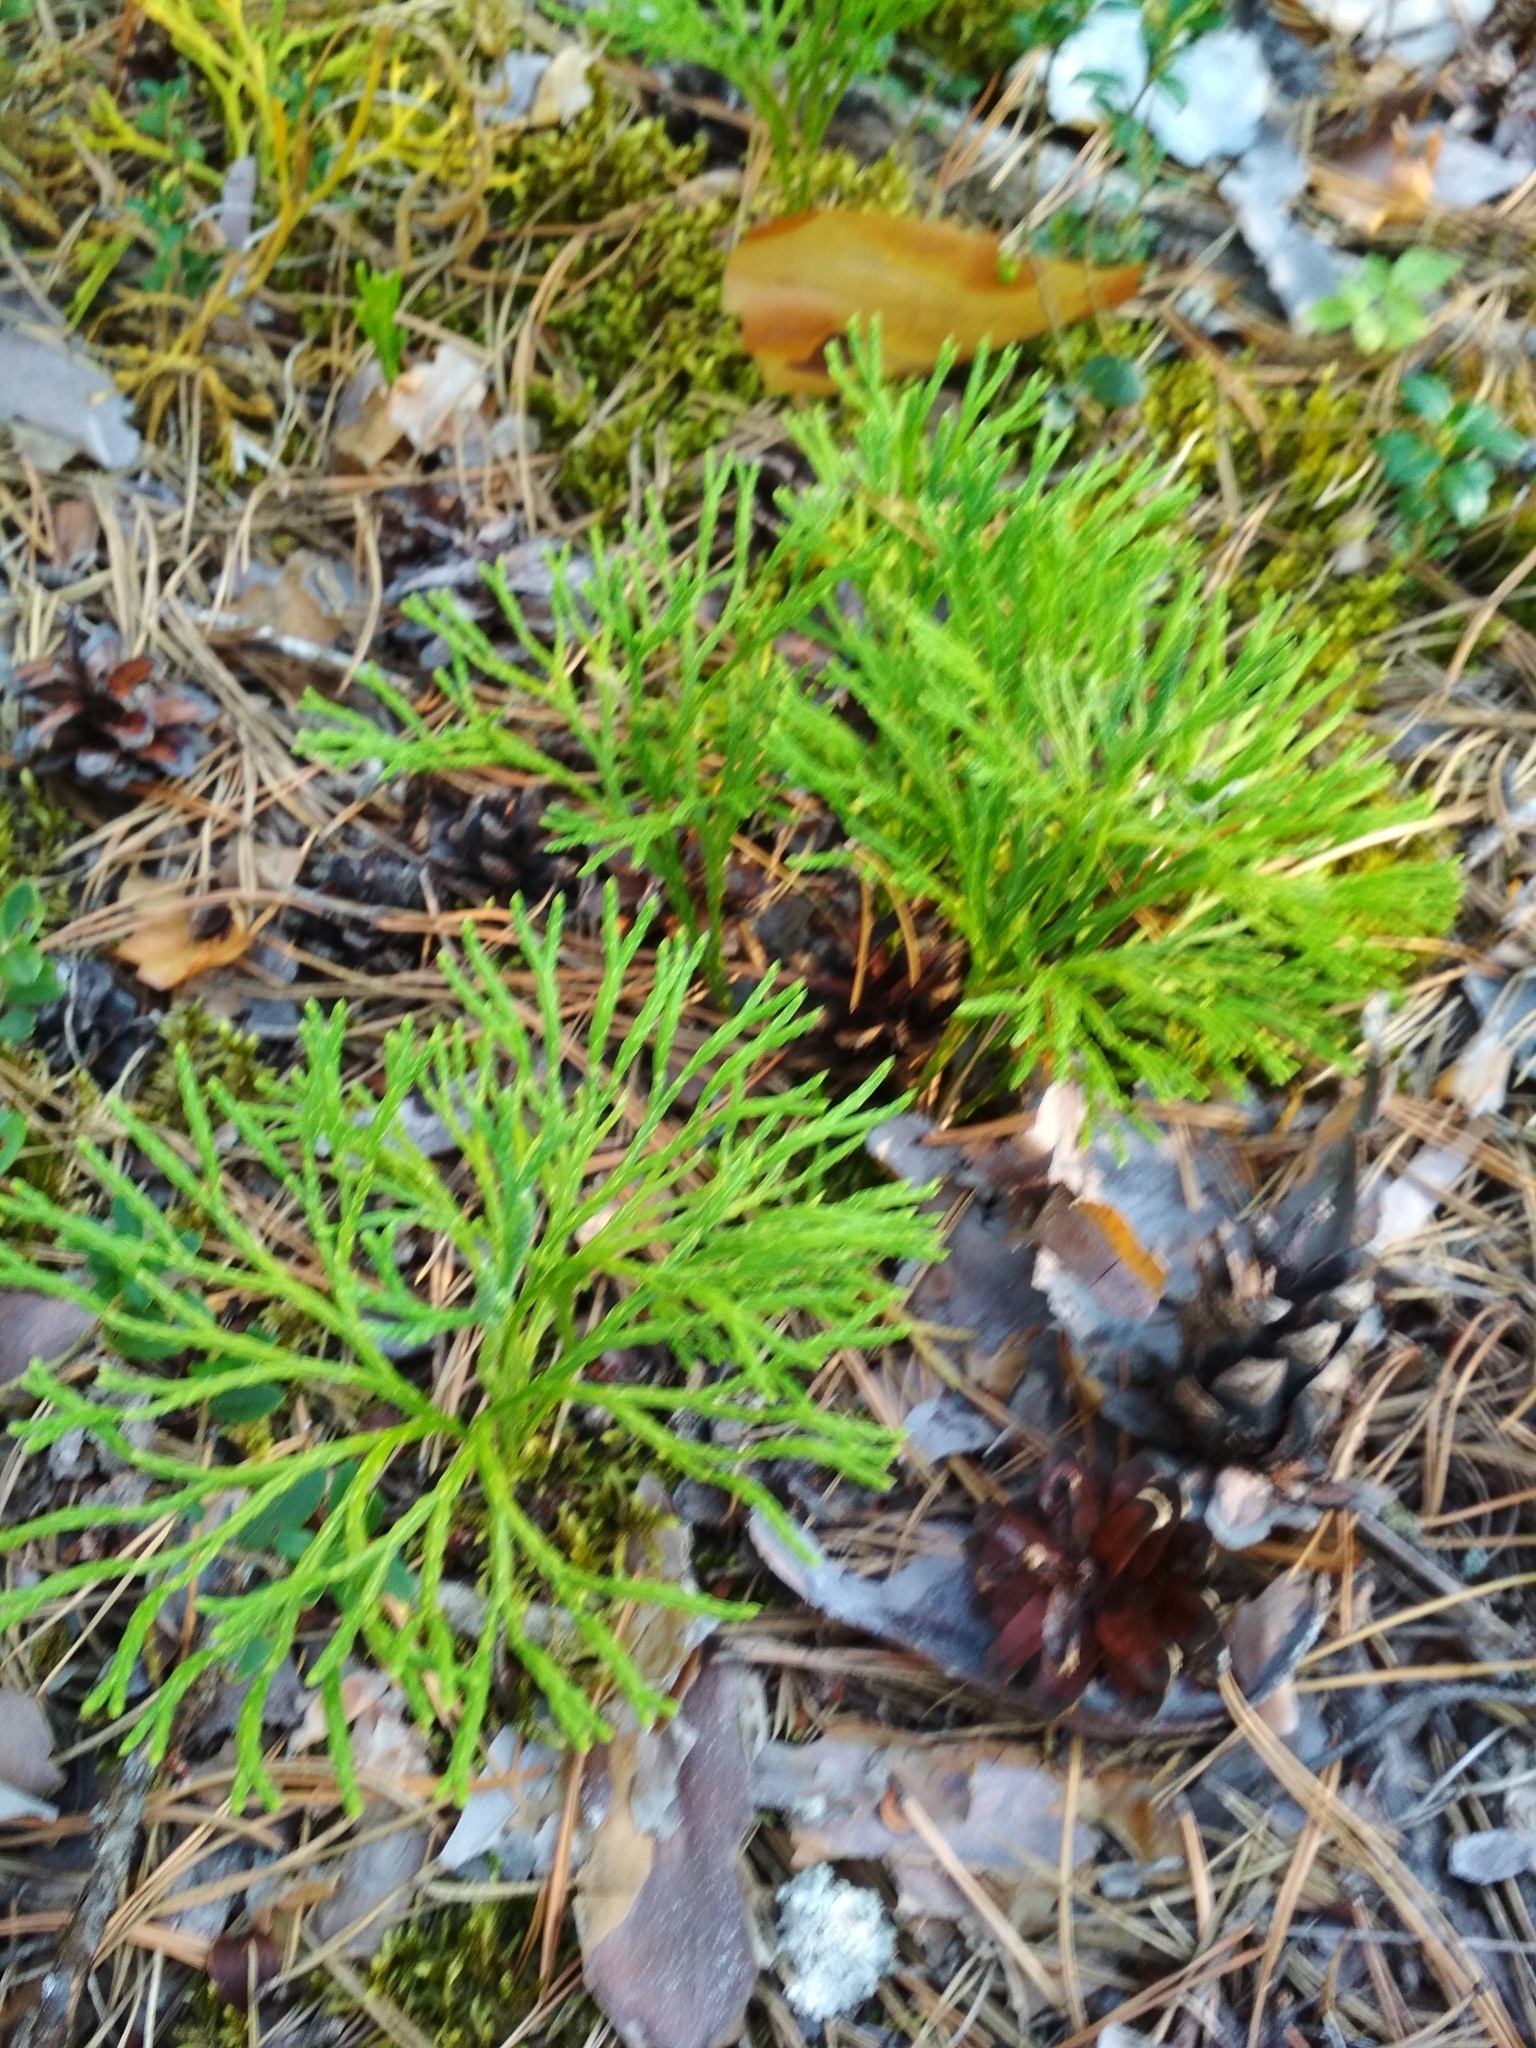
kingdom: Plantae
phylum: Tracheophyta
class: Lycopodiopsida
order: Lycopodiales
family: Lycopodiaceae
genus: Diphasiastrum
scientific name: Diphasiastrum complanatum
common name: Northern running-pine
